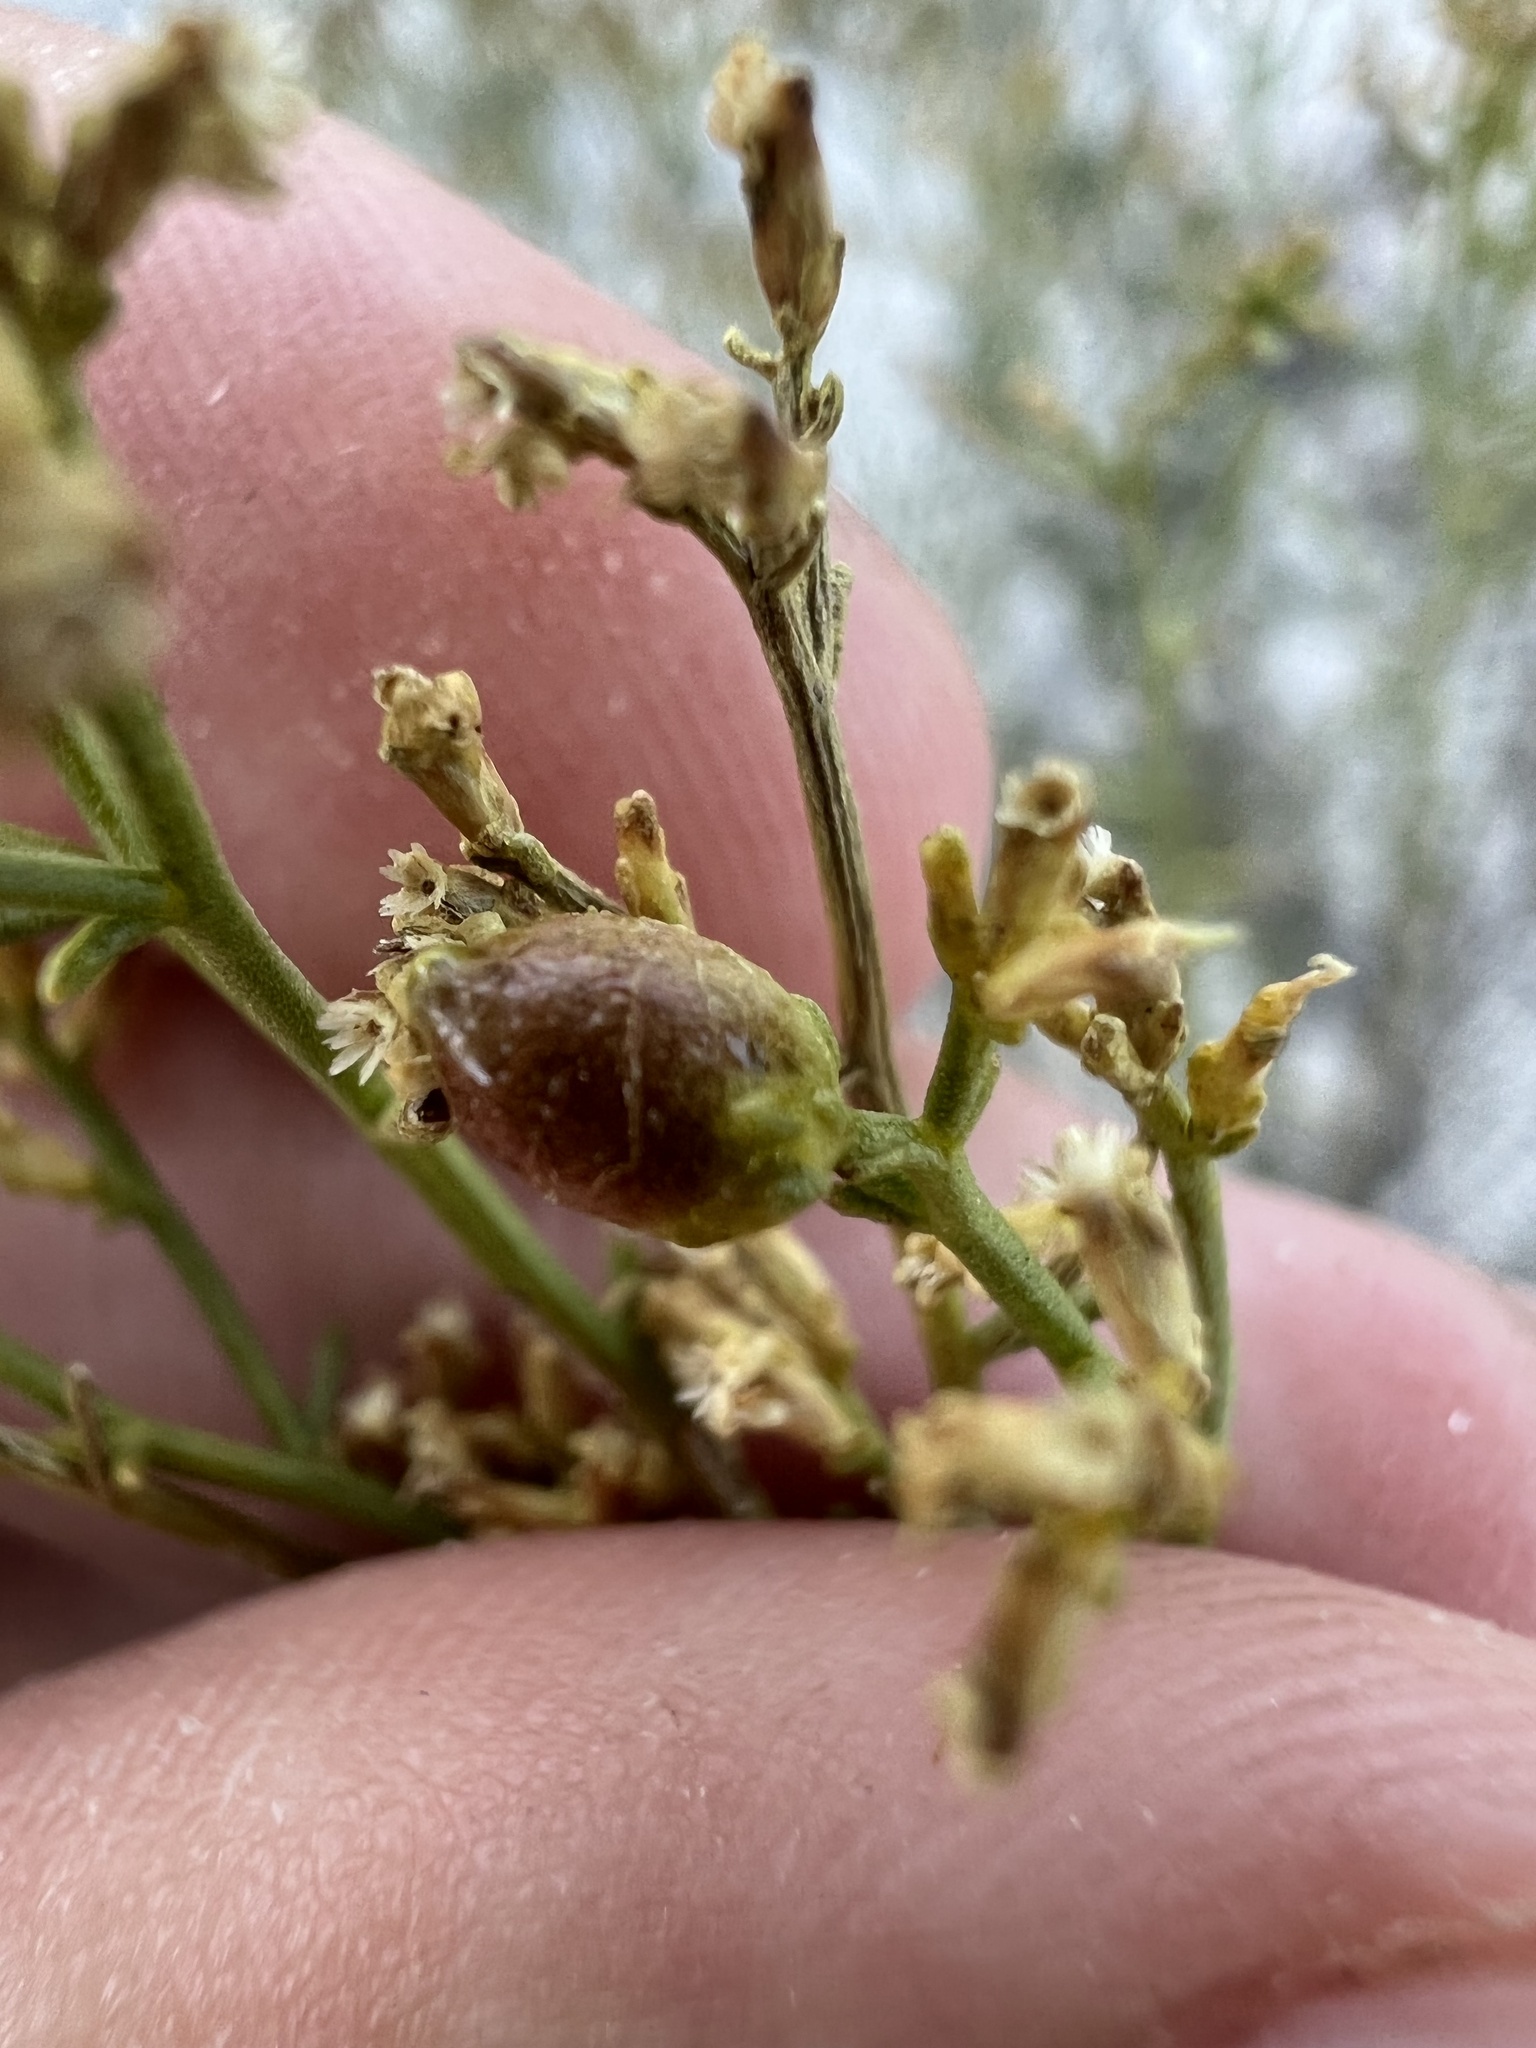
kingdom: Animalia
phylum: Arthropoda
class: Insecta
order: Diptera
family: Cecidomyiidae
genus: Rhopalomyia
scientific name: Rhopalomyia gutierreziae
